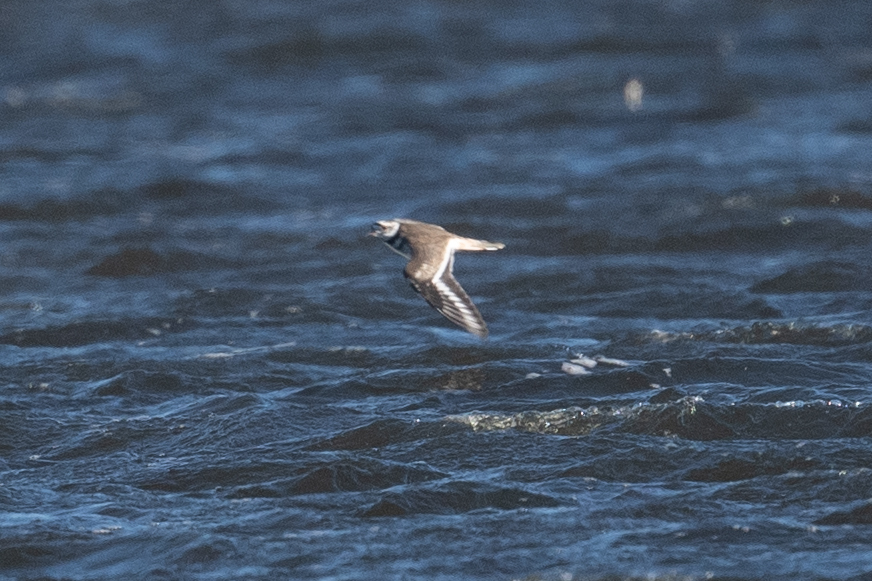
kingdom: Animalia
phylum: Chordata
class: Aves
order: Charadriiformes
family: Charadriidae
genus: Charadrius
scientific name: Charadrius vociferus
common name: Killdeer
